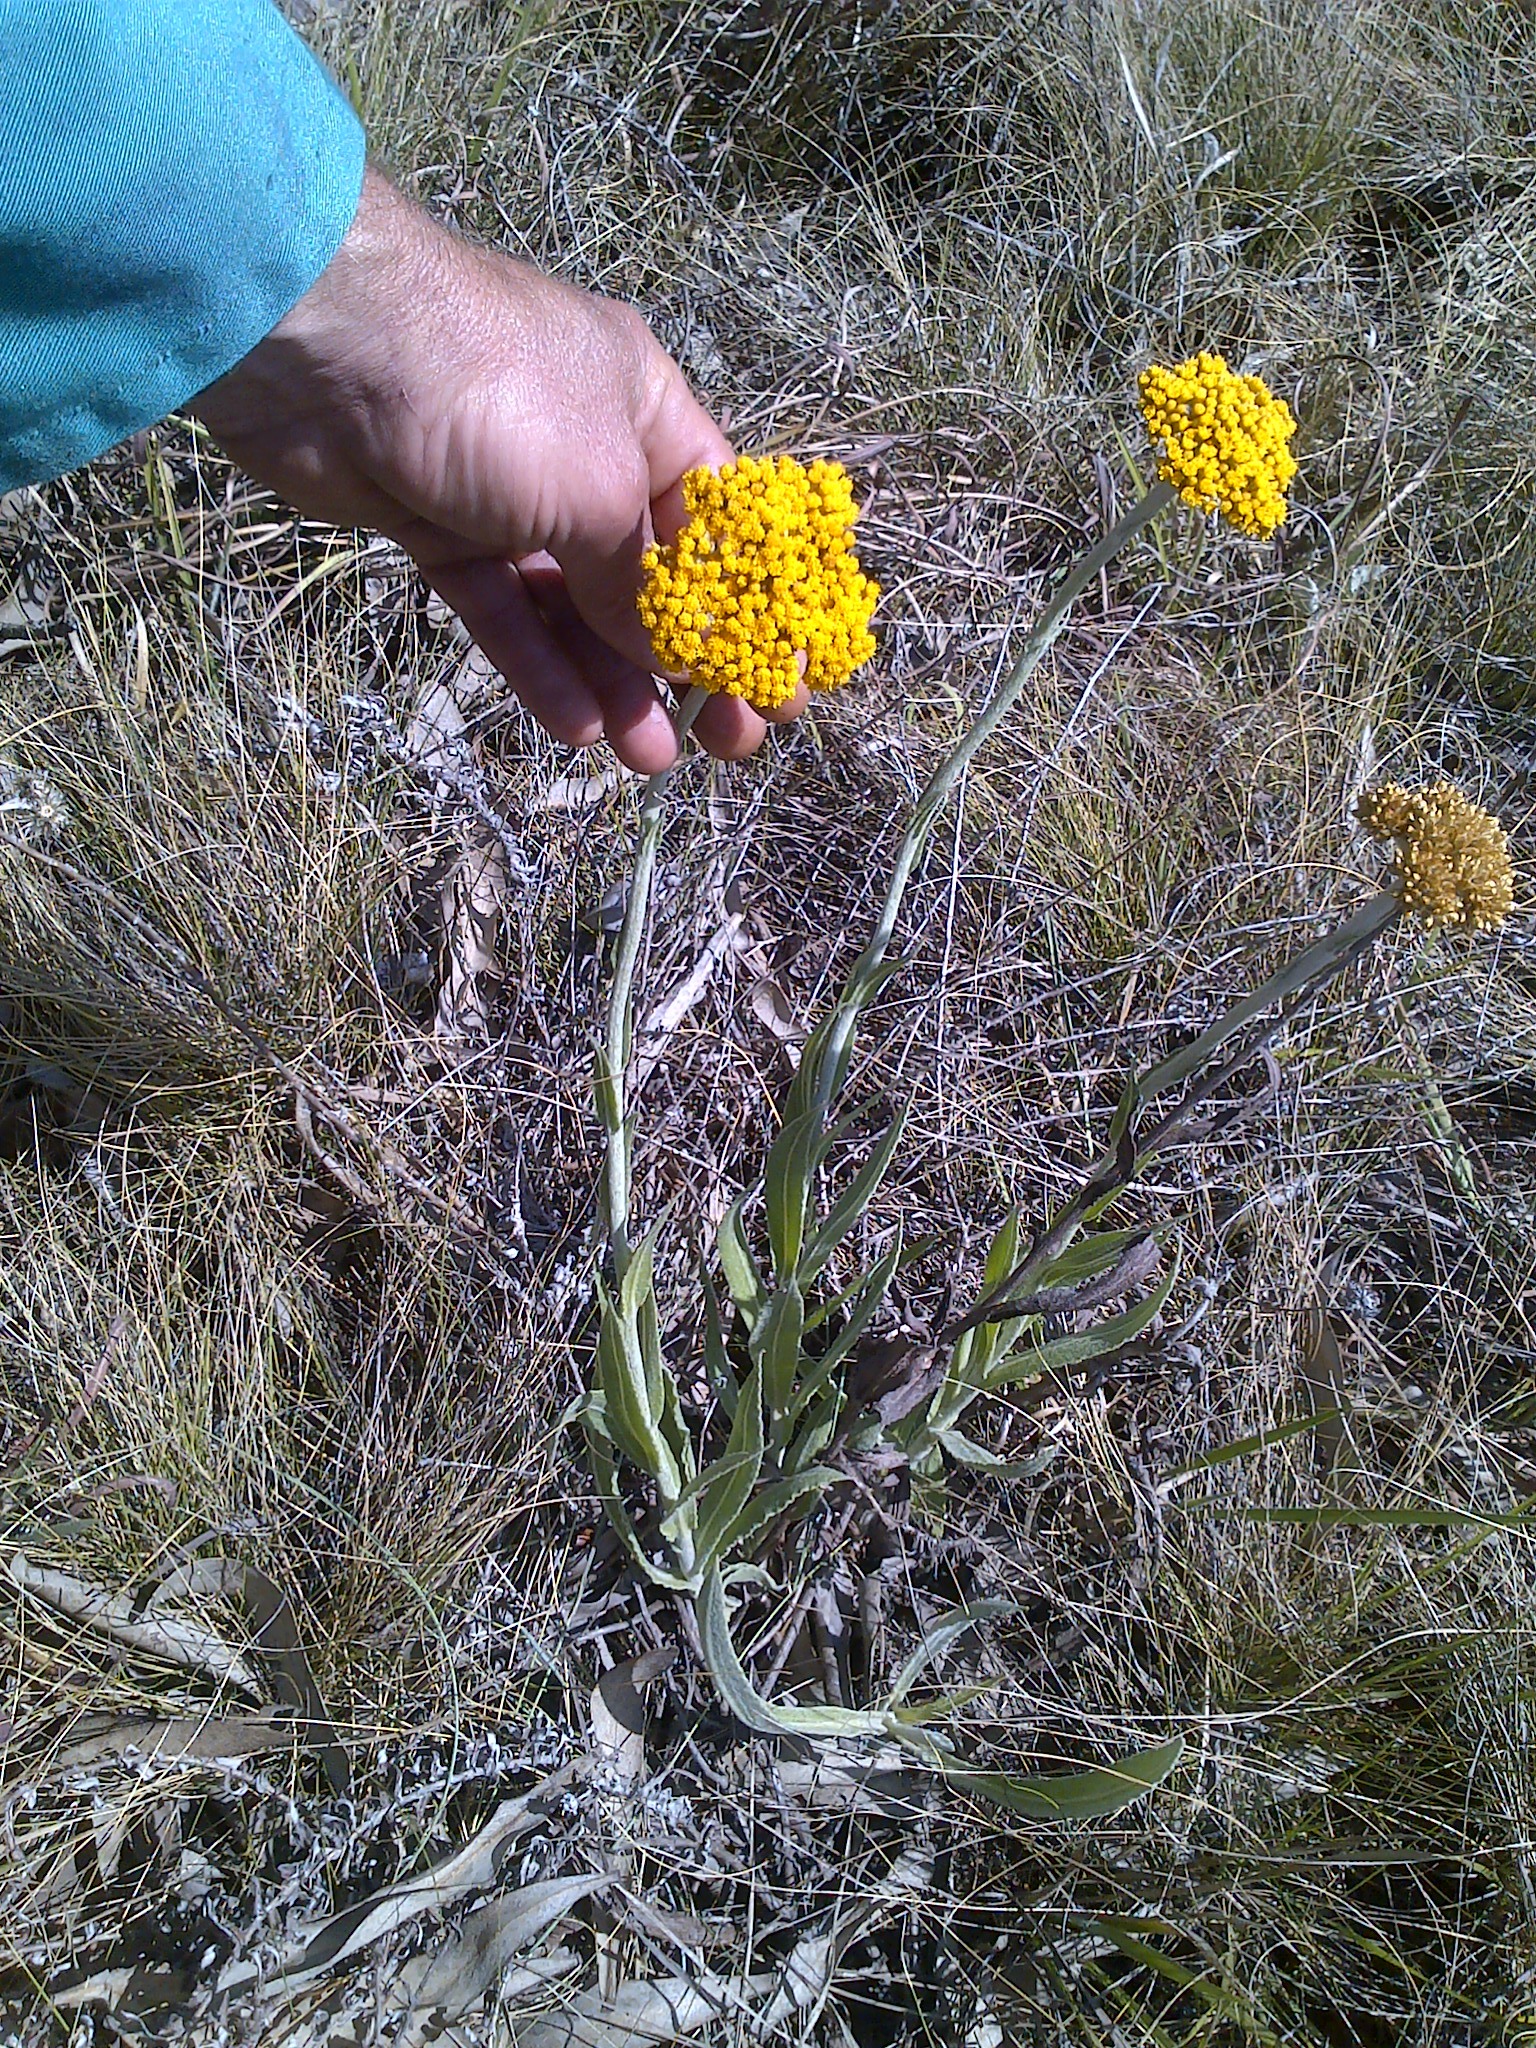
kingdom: Plantae
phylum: Tracheophyta
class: Magnoliopsida
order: Asterales
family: Asteraceae
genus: Helichrysum
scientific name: Helichrysum acutatum
